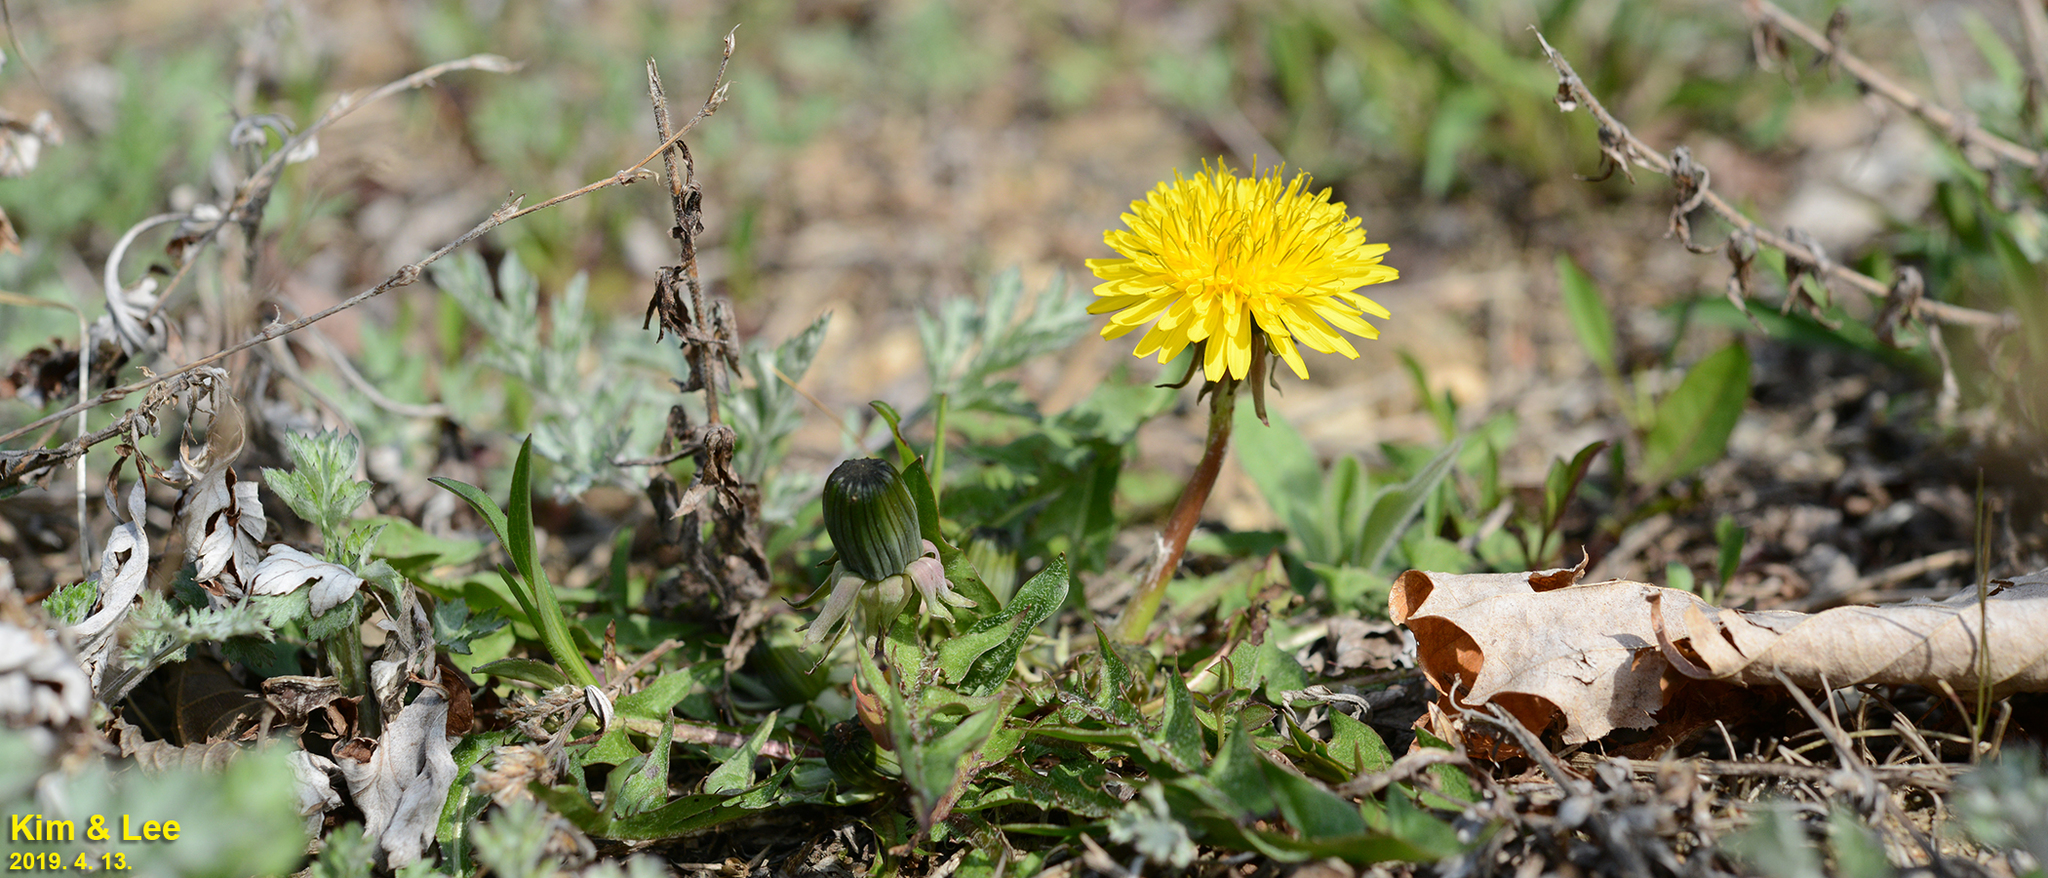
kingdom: Plantae
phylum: Tracheophyta
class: Magnoliopsida
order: Asterales
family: Asteraceae
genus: Taraxacum
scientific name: Taraxacum officinale
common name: Common dandelion
